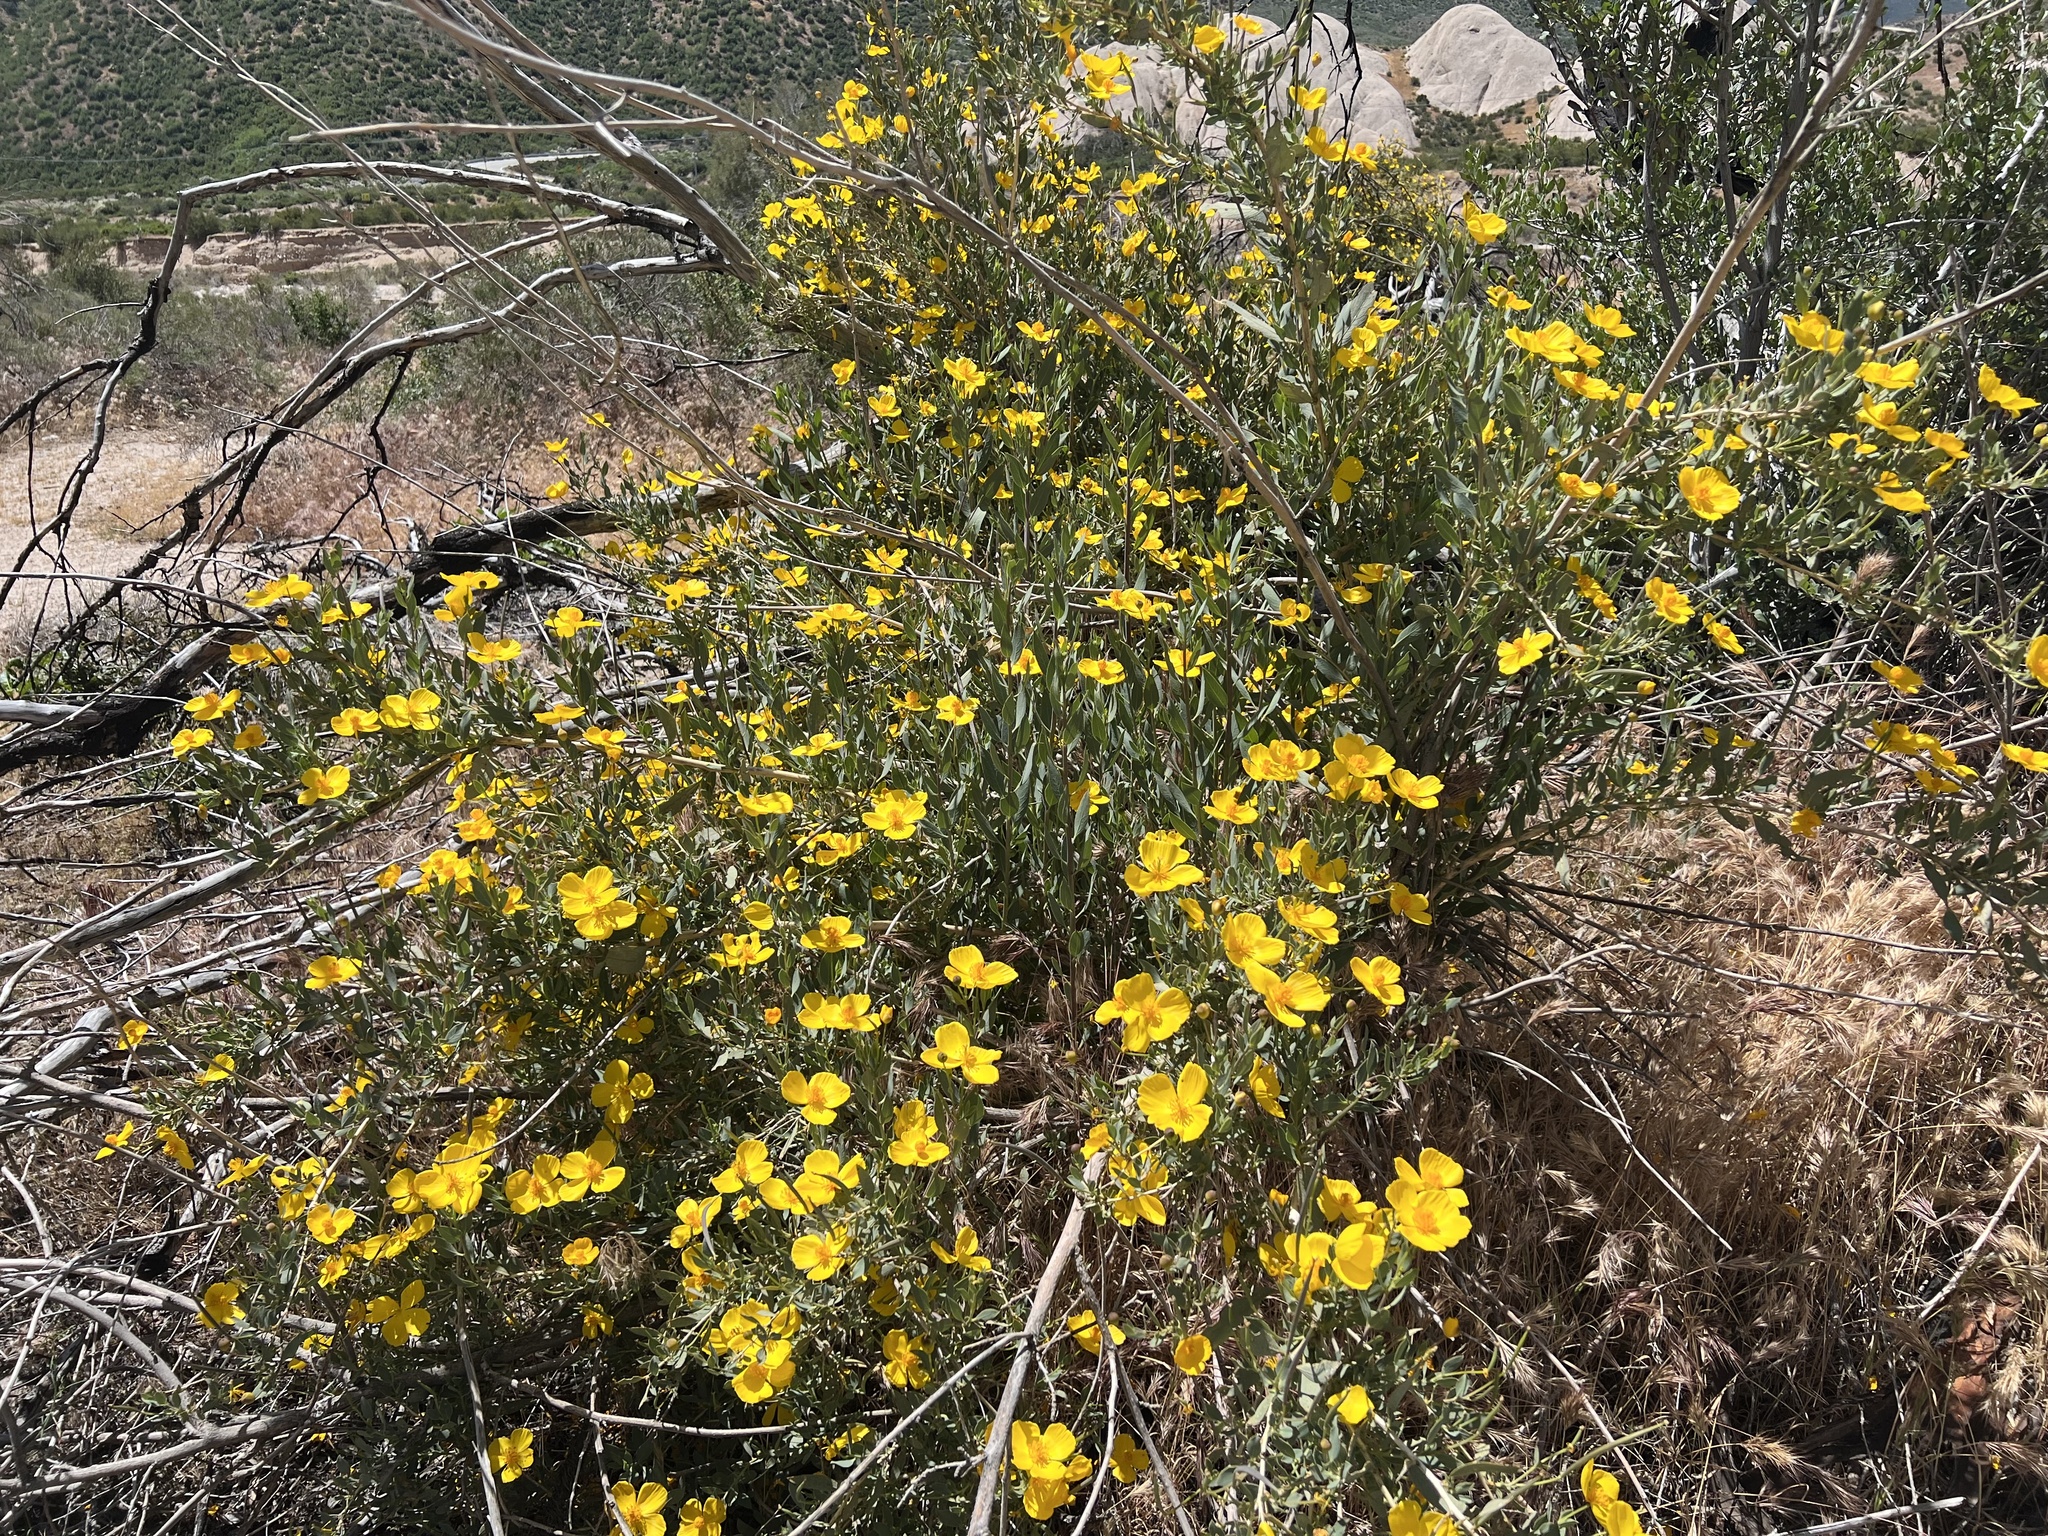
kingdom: Plantae
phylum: Tracheophyta
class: Magnoliopsida
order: Ranunculales
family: Papaveraceae
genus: Dendromecon
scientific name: Dendromecon rigida
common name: Tree poppy
